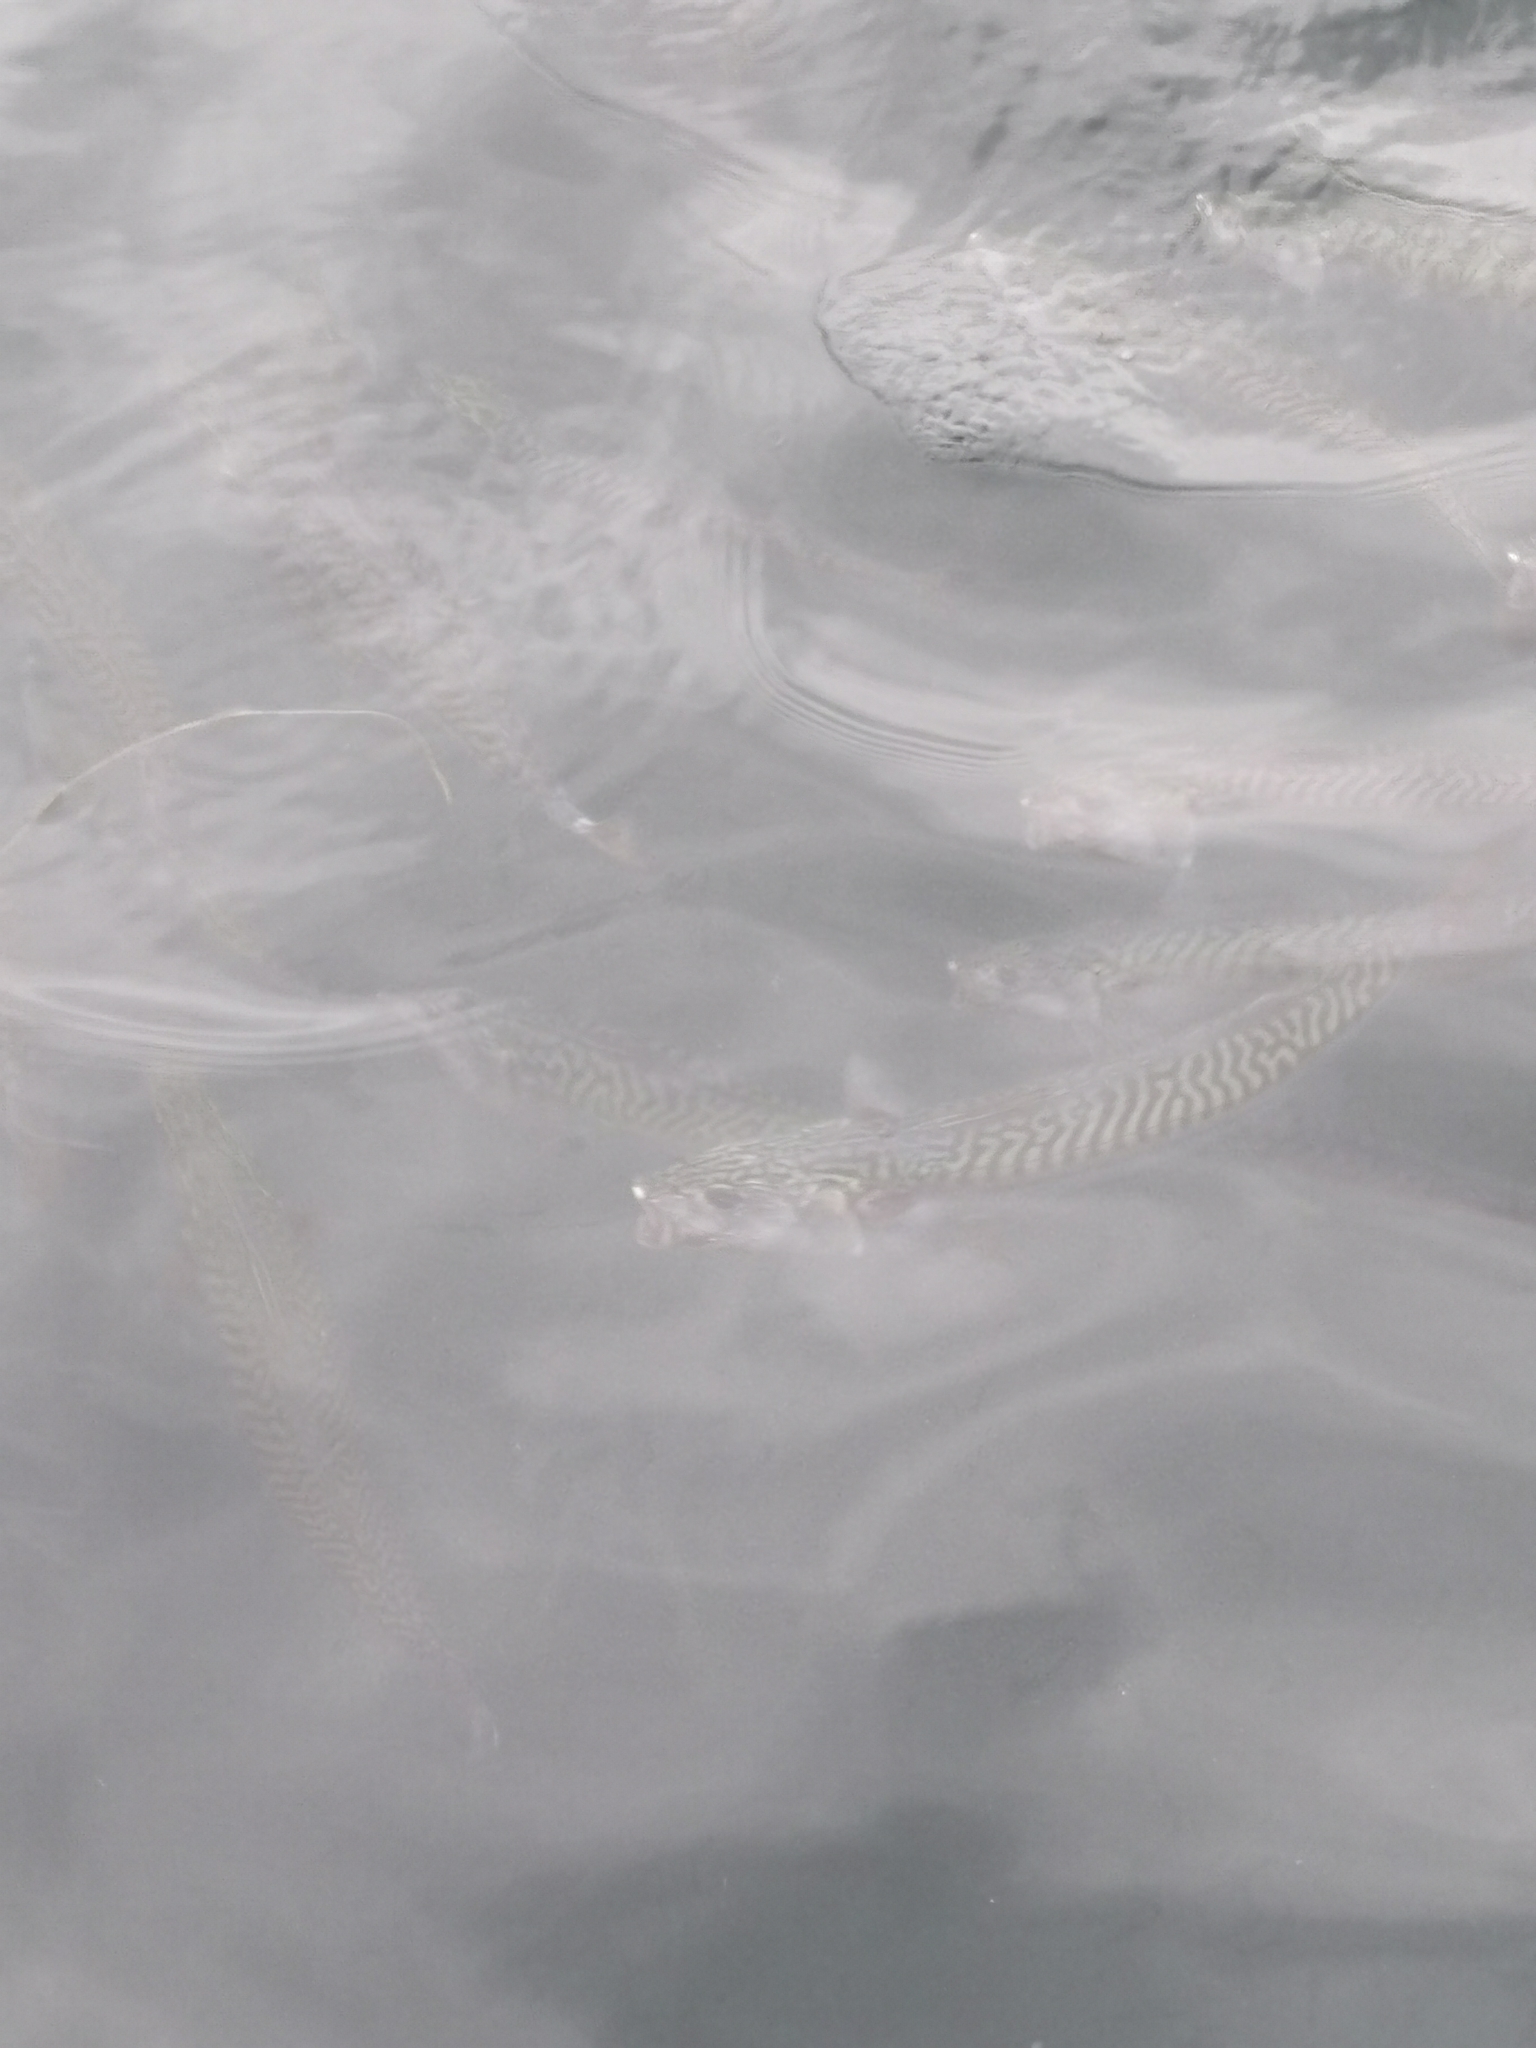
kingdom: Animalia
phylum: Chordata
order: Perciformes
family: Scombridae
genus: Scomber
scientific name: Scomber scombrus
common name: Mackerel
